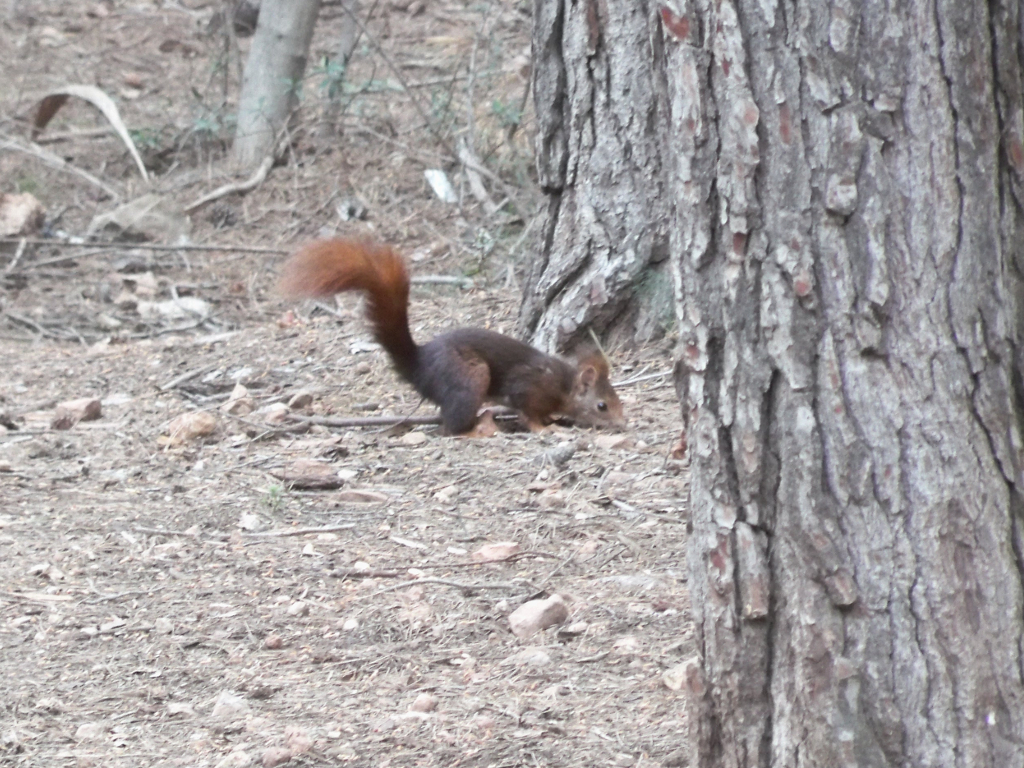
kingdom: Animalia
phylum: Chordata
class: Mammalia
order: Rodentia
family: Sciuridae
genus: Sciurus
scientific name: Sciurus vulgaris
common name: Eurasian red squirrel
